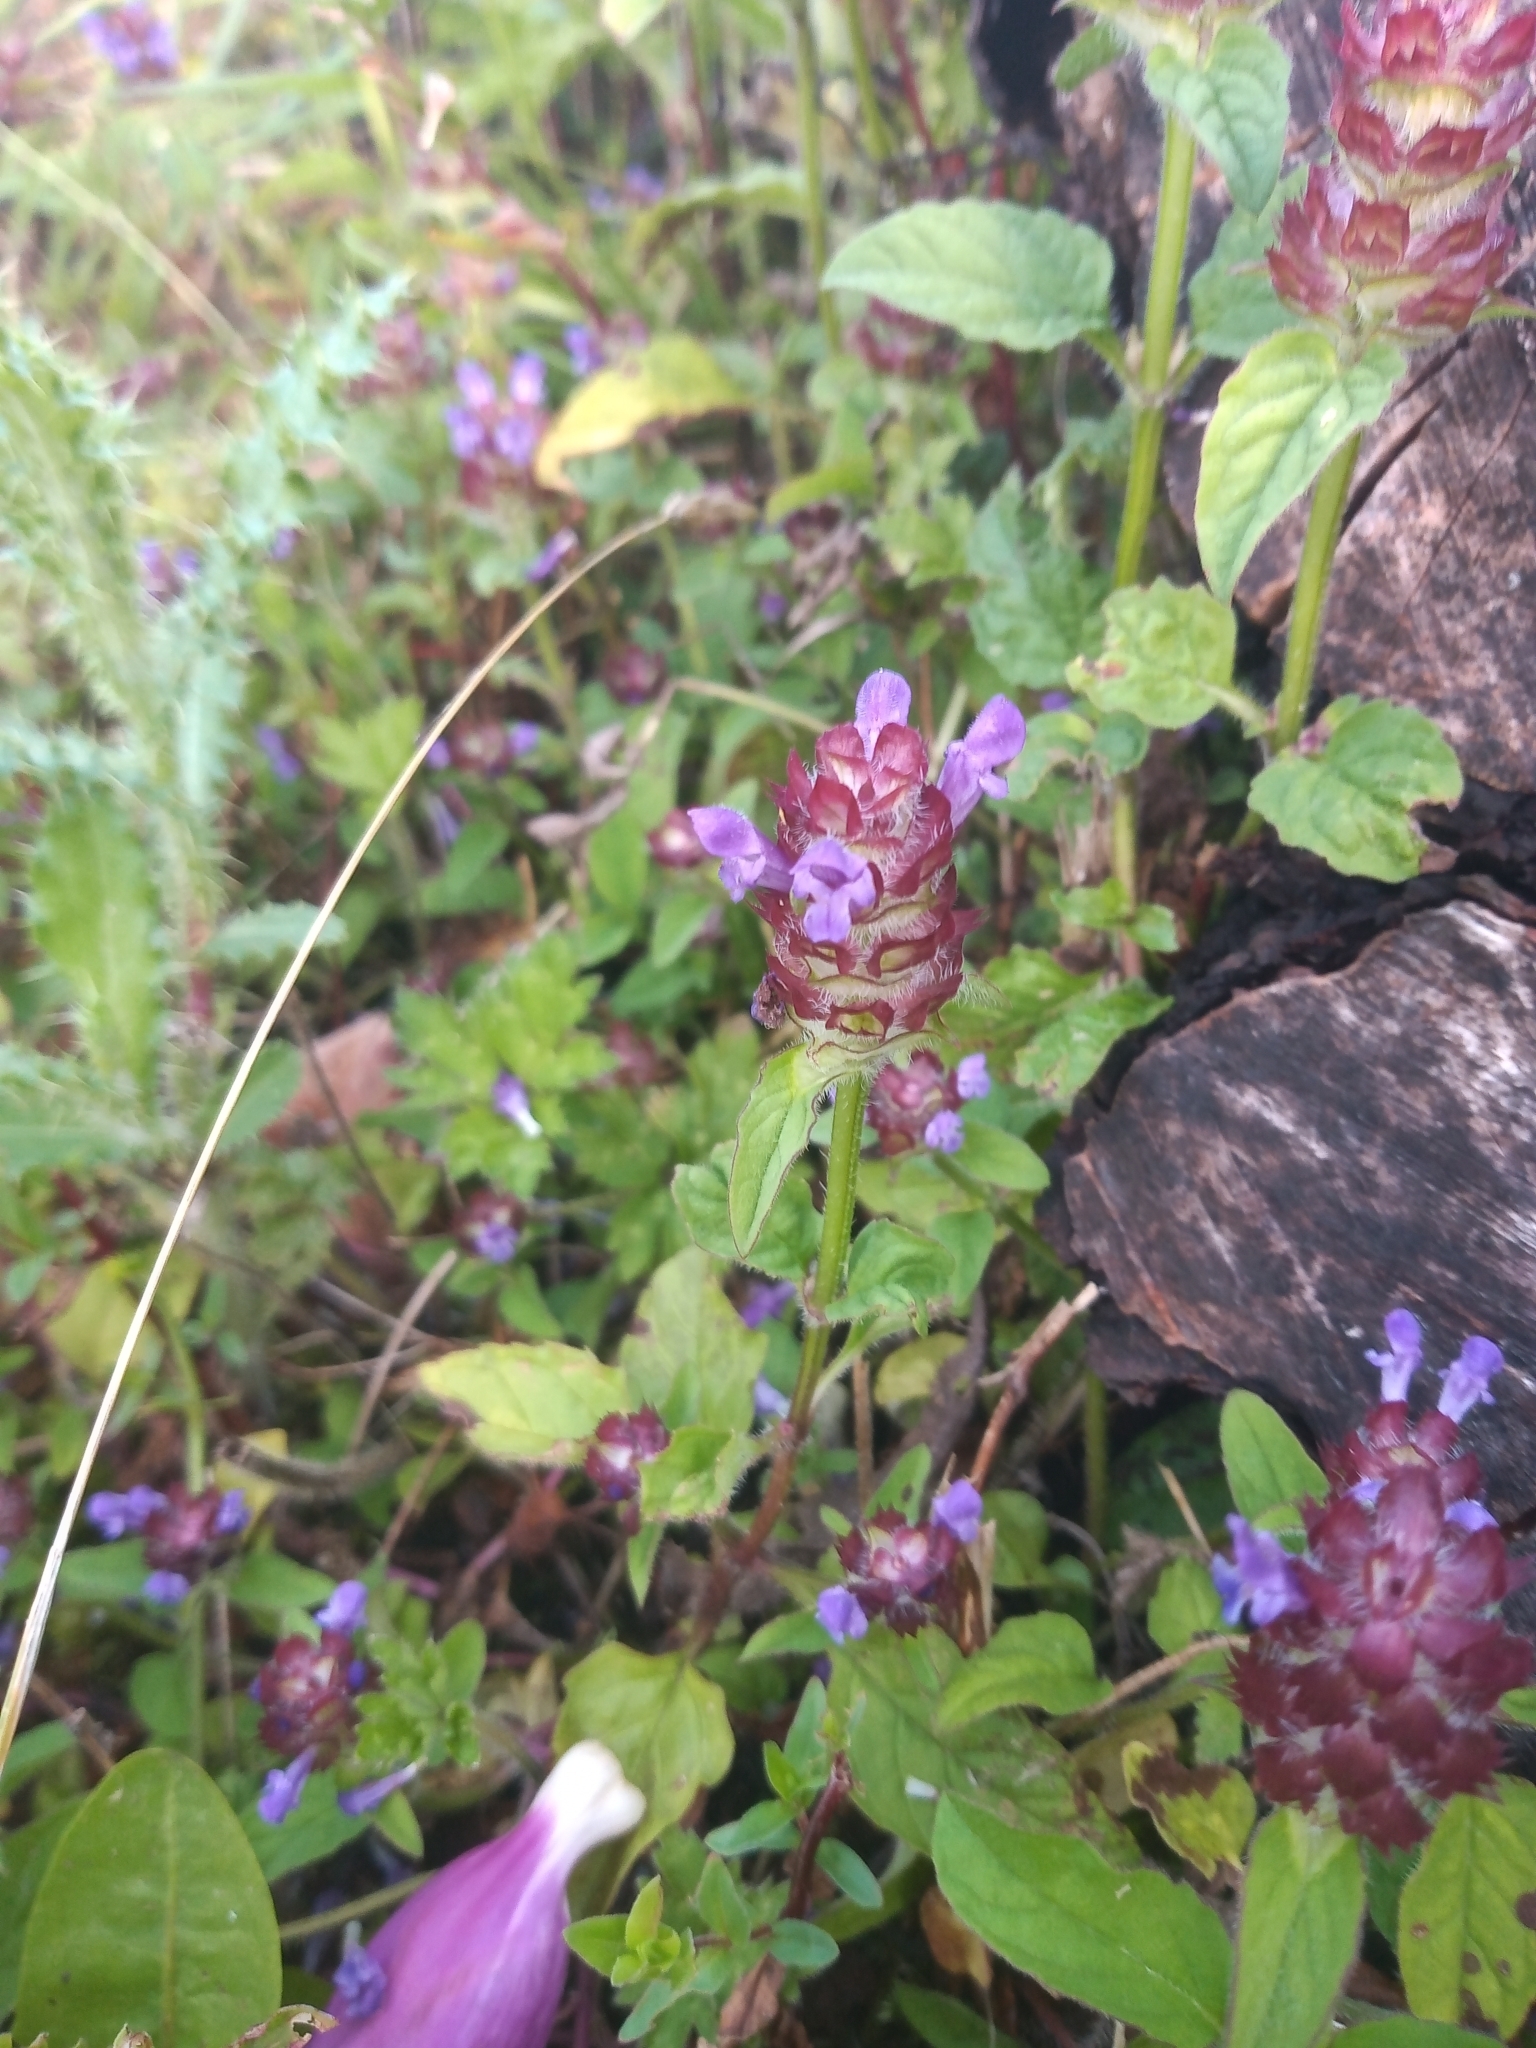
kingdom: Plantae
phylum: Tracheophyta
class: Magnoliopsida
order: Lamiales
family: Lamiaceae
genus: Prunella
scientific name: Prunella vulgaris
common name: Heal-all
